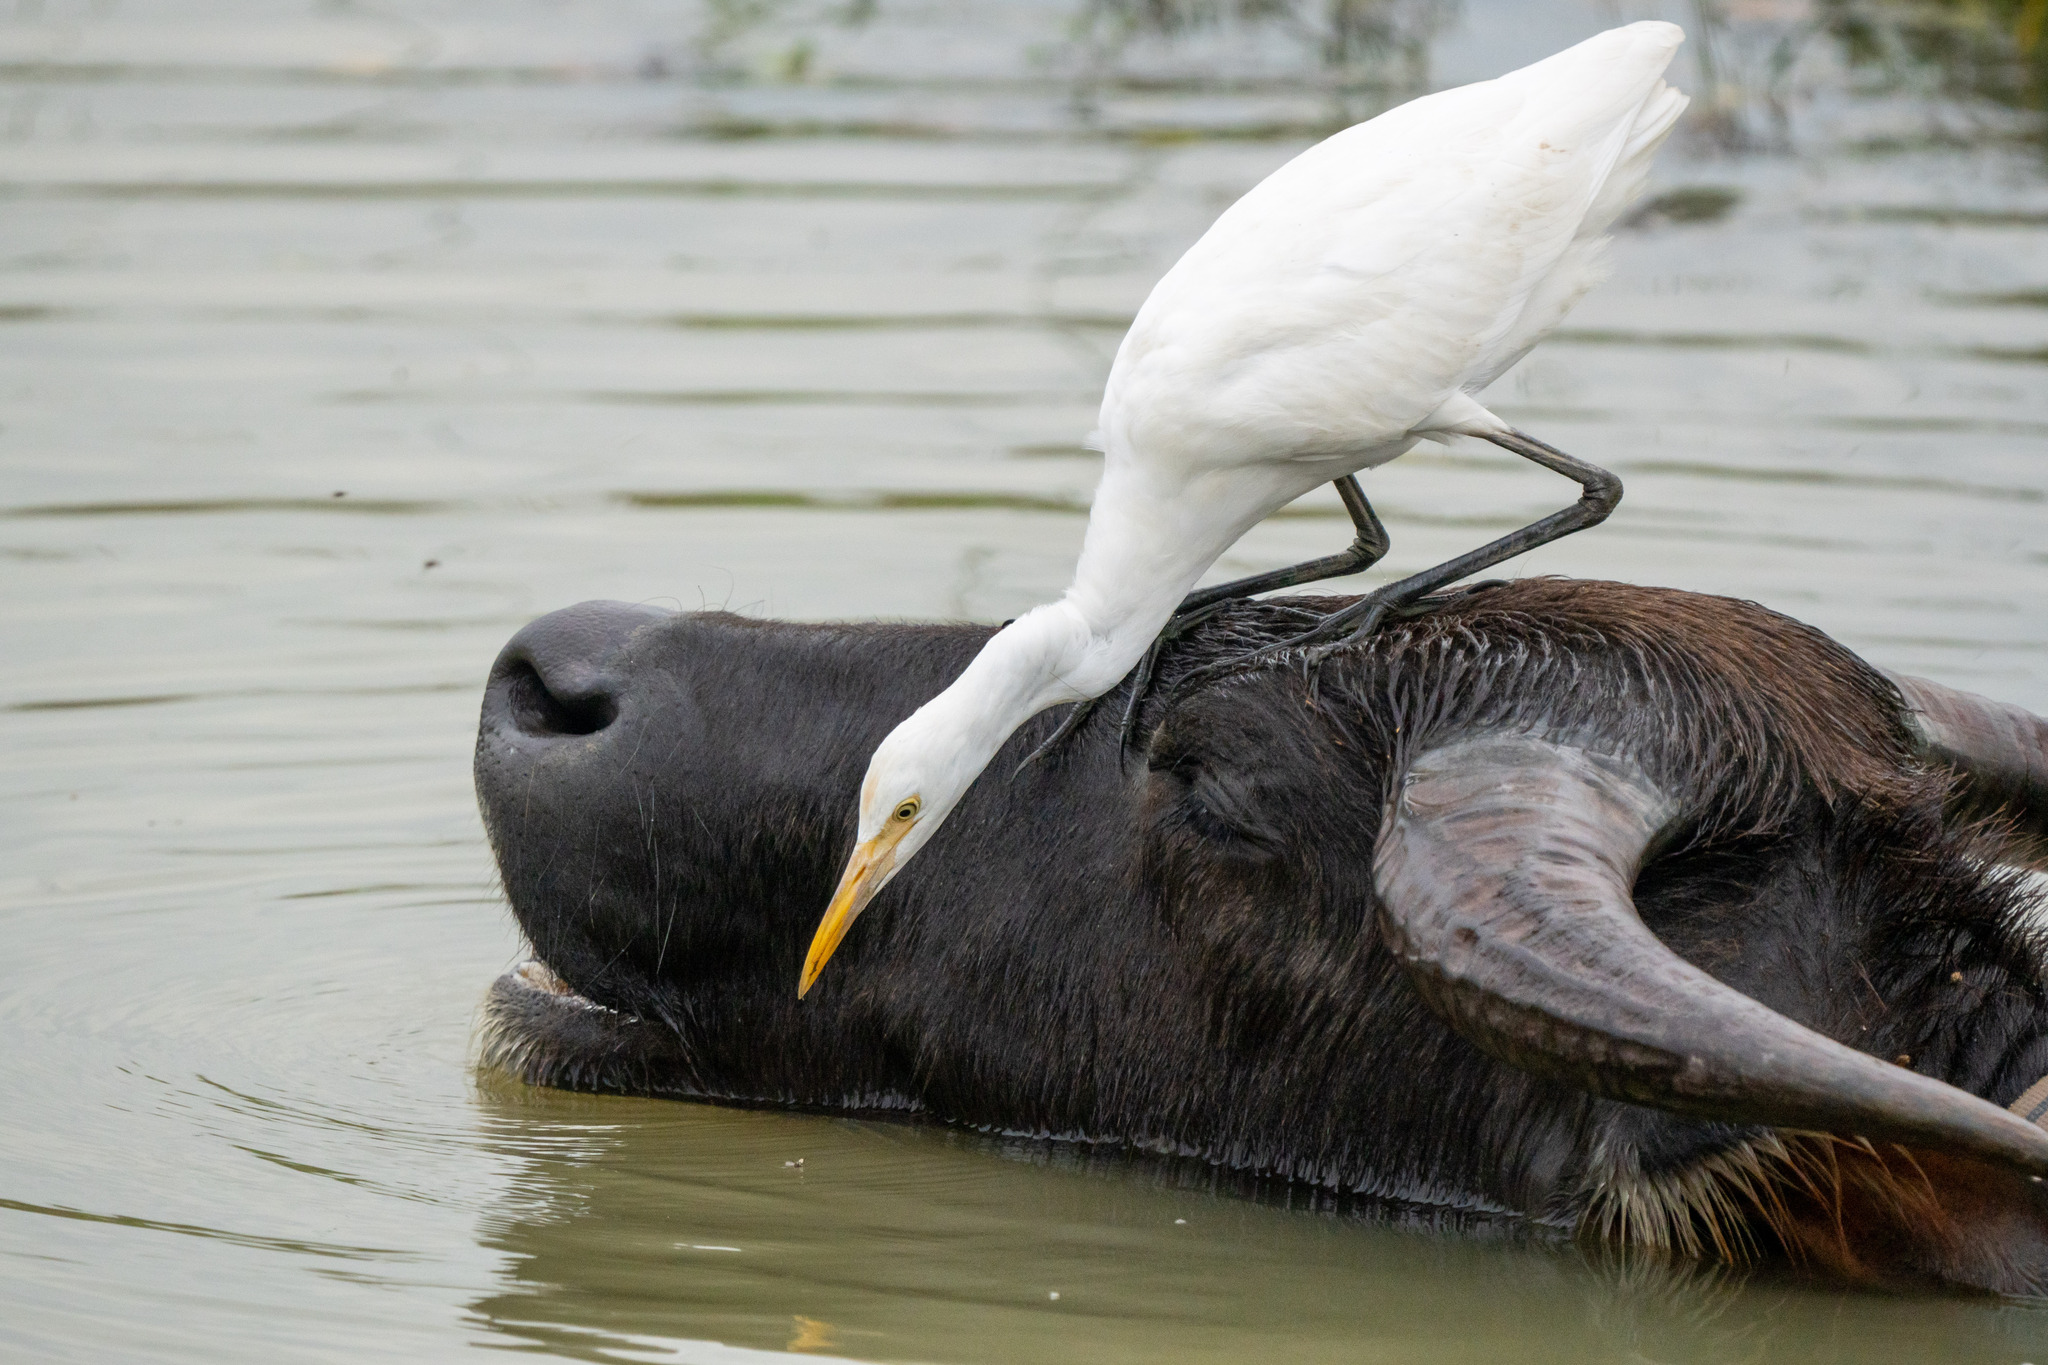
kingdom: Animalia
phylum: Chordata
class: Aves
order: Pelecaniformes
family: Ardeidae
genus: Bubulcus
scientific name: Bubulcus coromandus
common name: Eastern cattle egret
